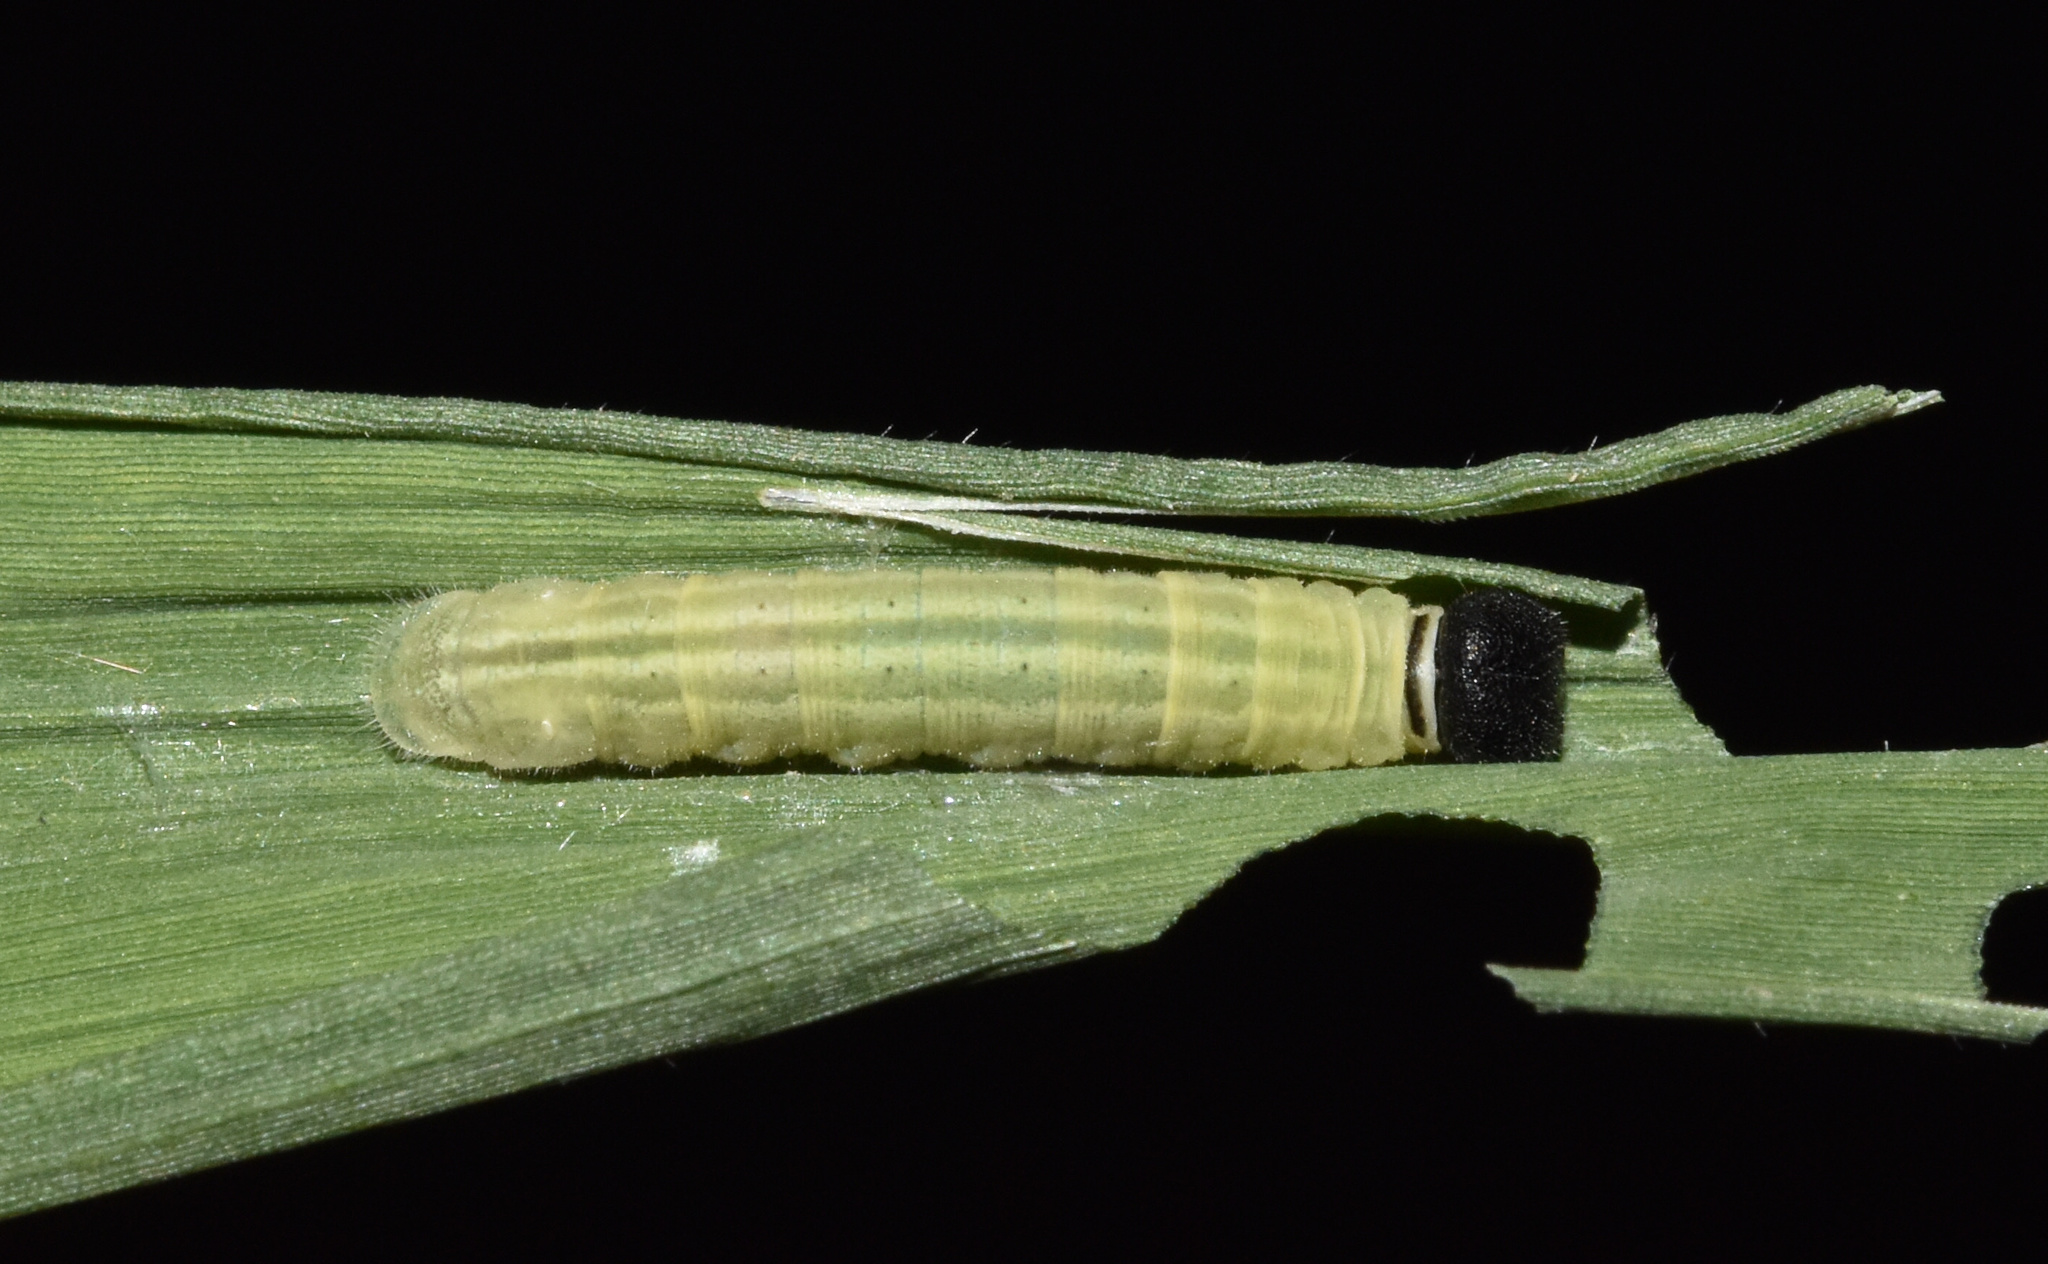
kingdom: Animalia
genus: Torbenlarsenia
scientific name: Torbenlarsenia
